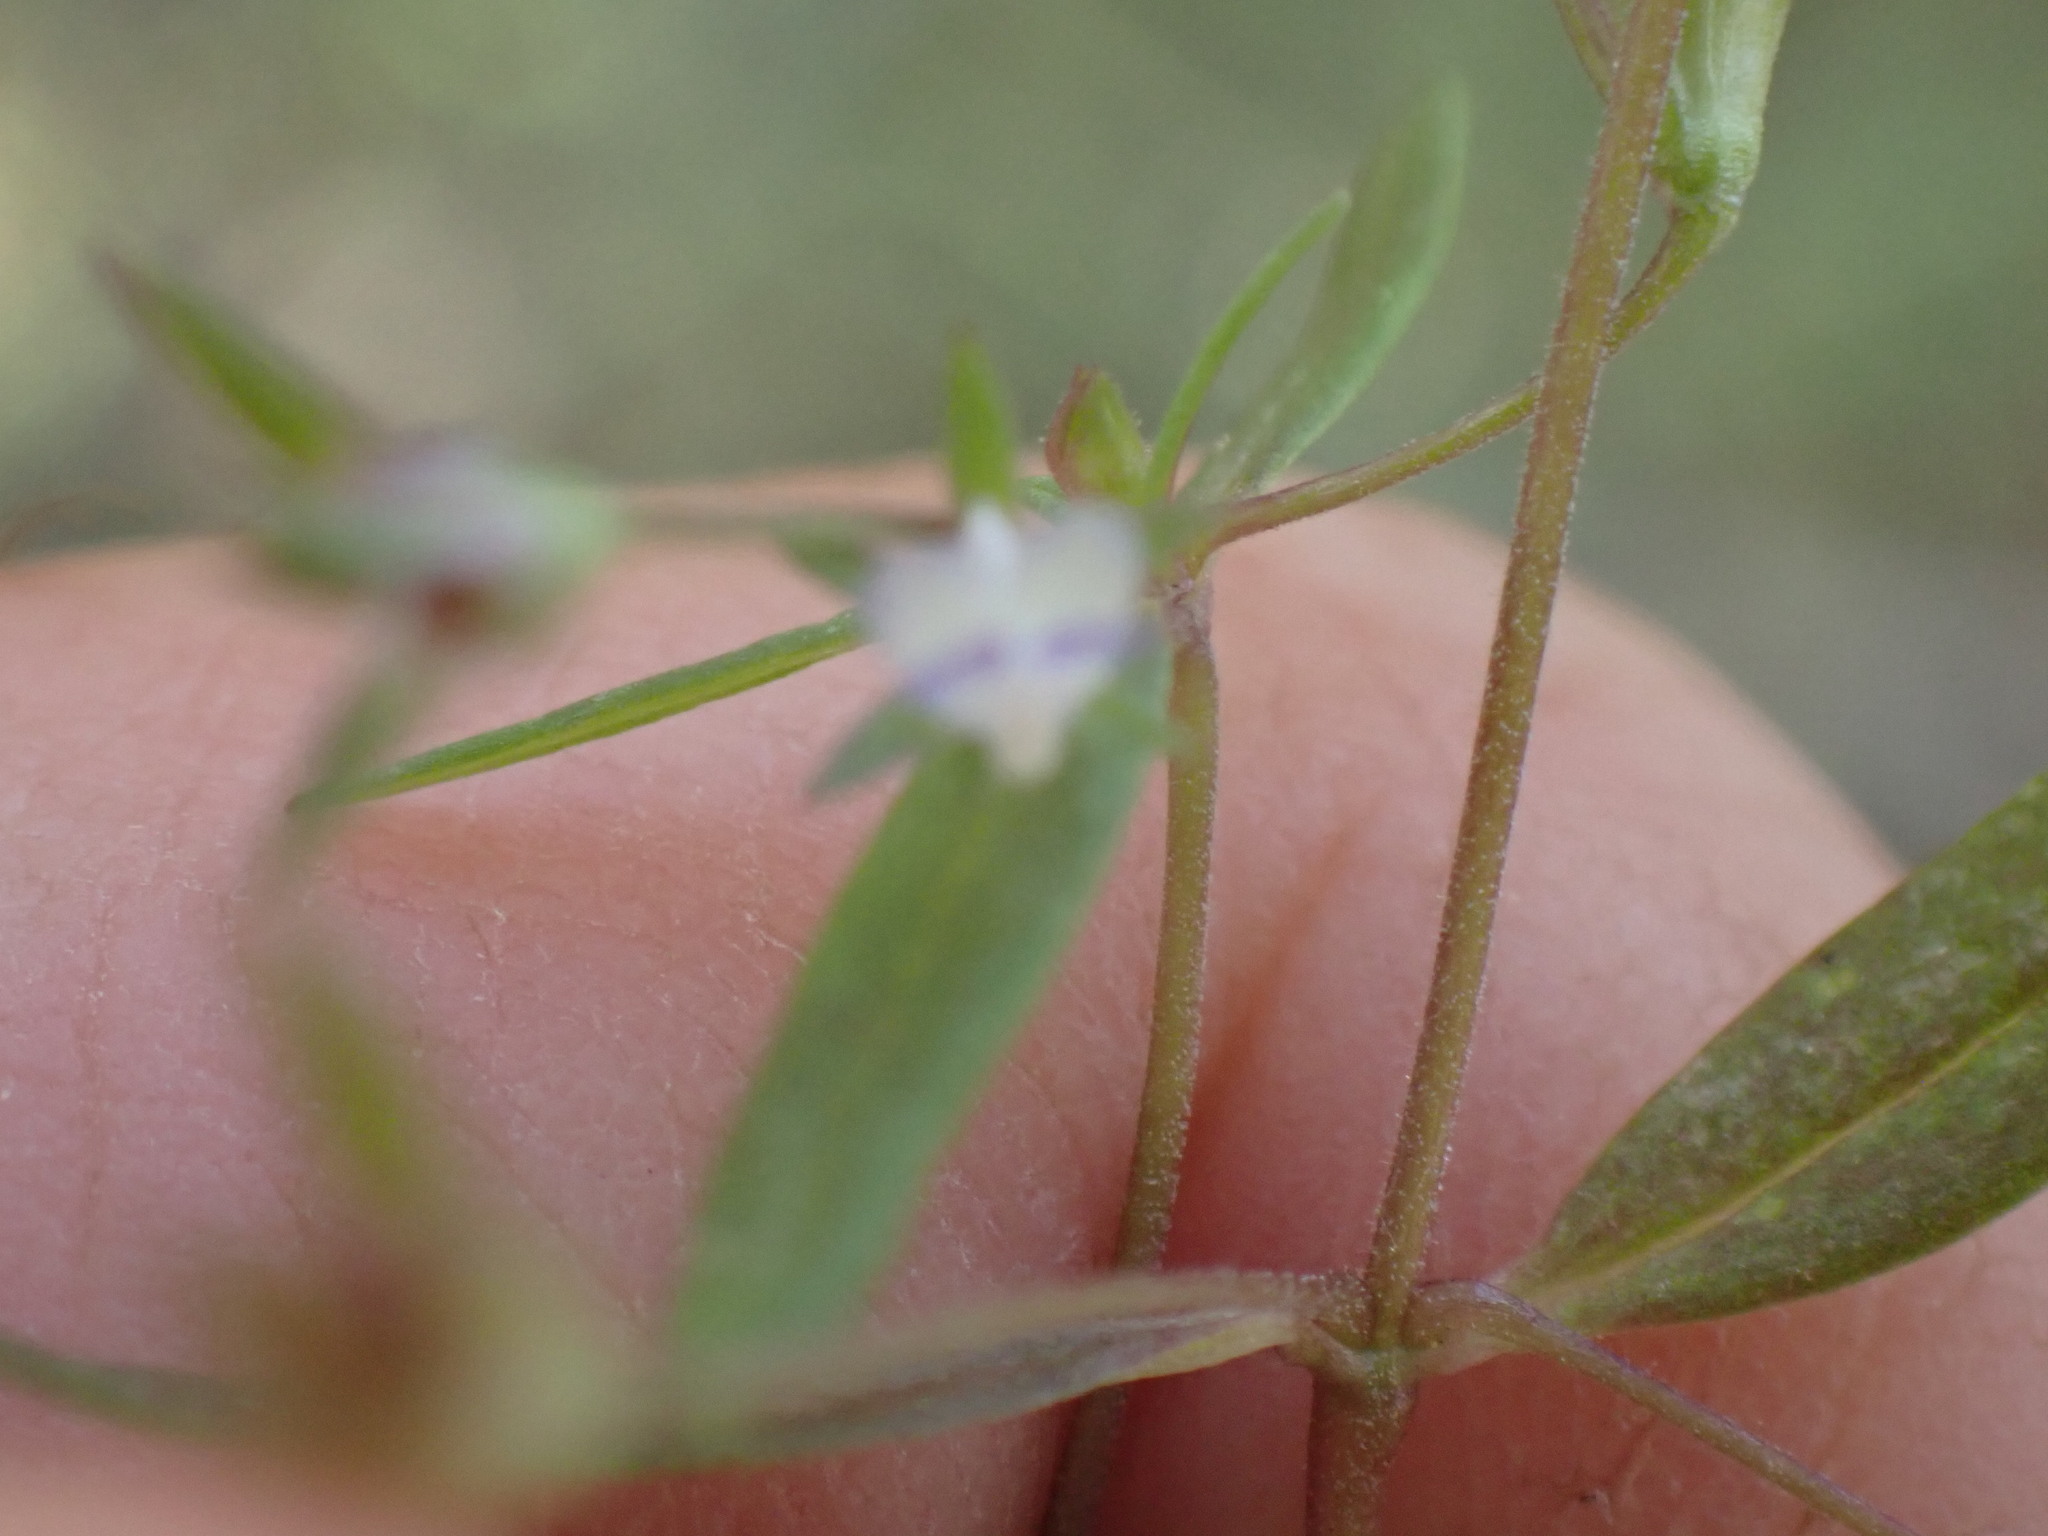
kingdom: Plantae
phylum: Tracheophyta
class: Magnoliopsida
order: Lamiales
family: Plantaginaceae
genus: Collinsia
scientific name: Collinsia parviflora
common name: Blue-lips
